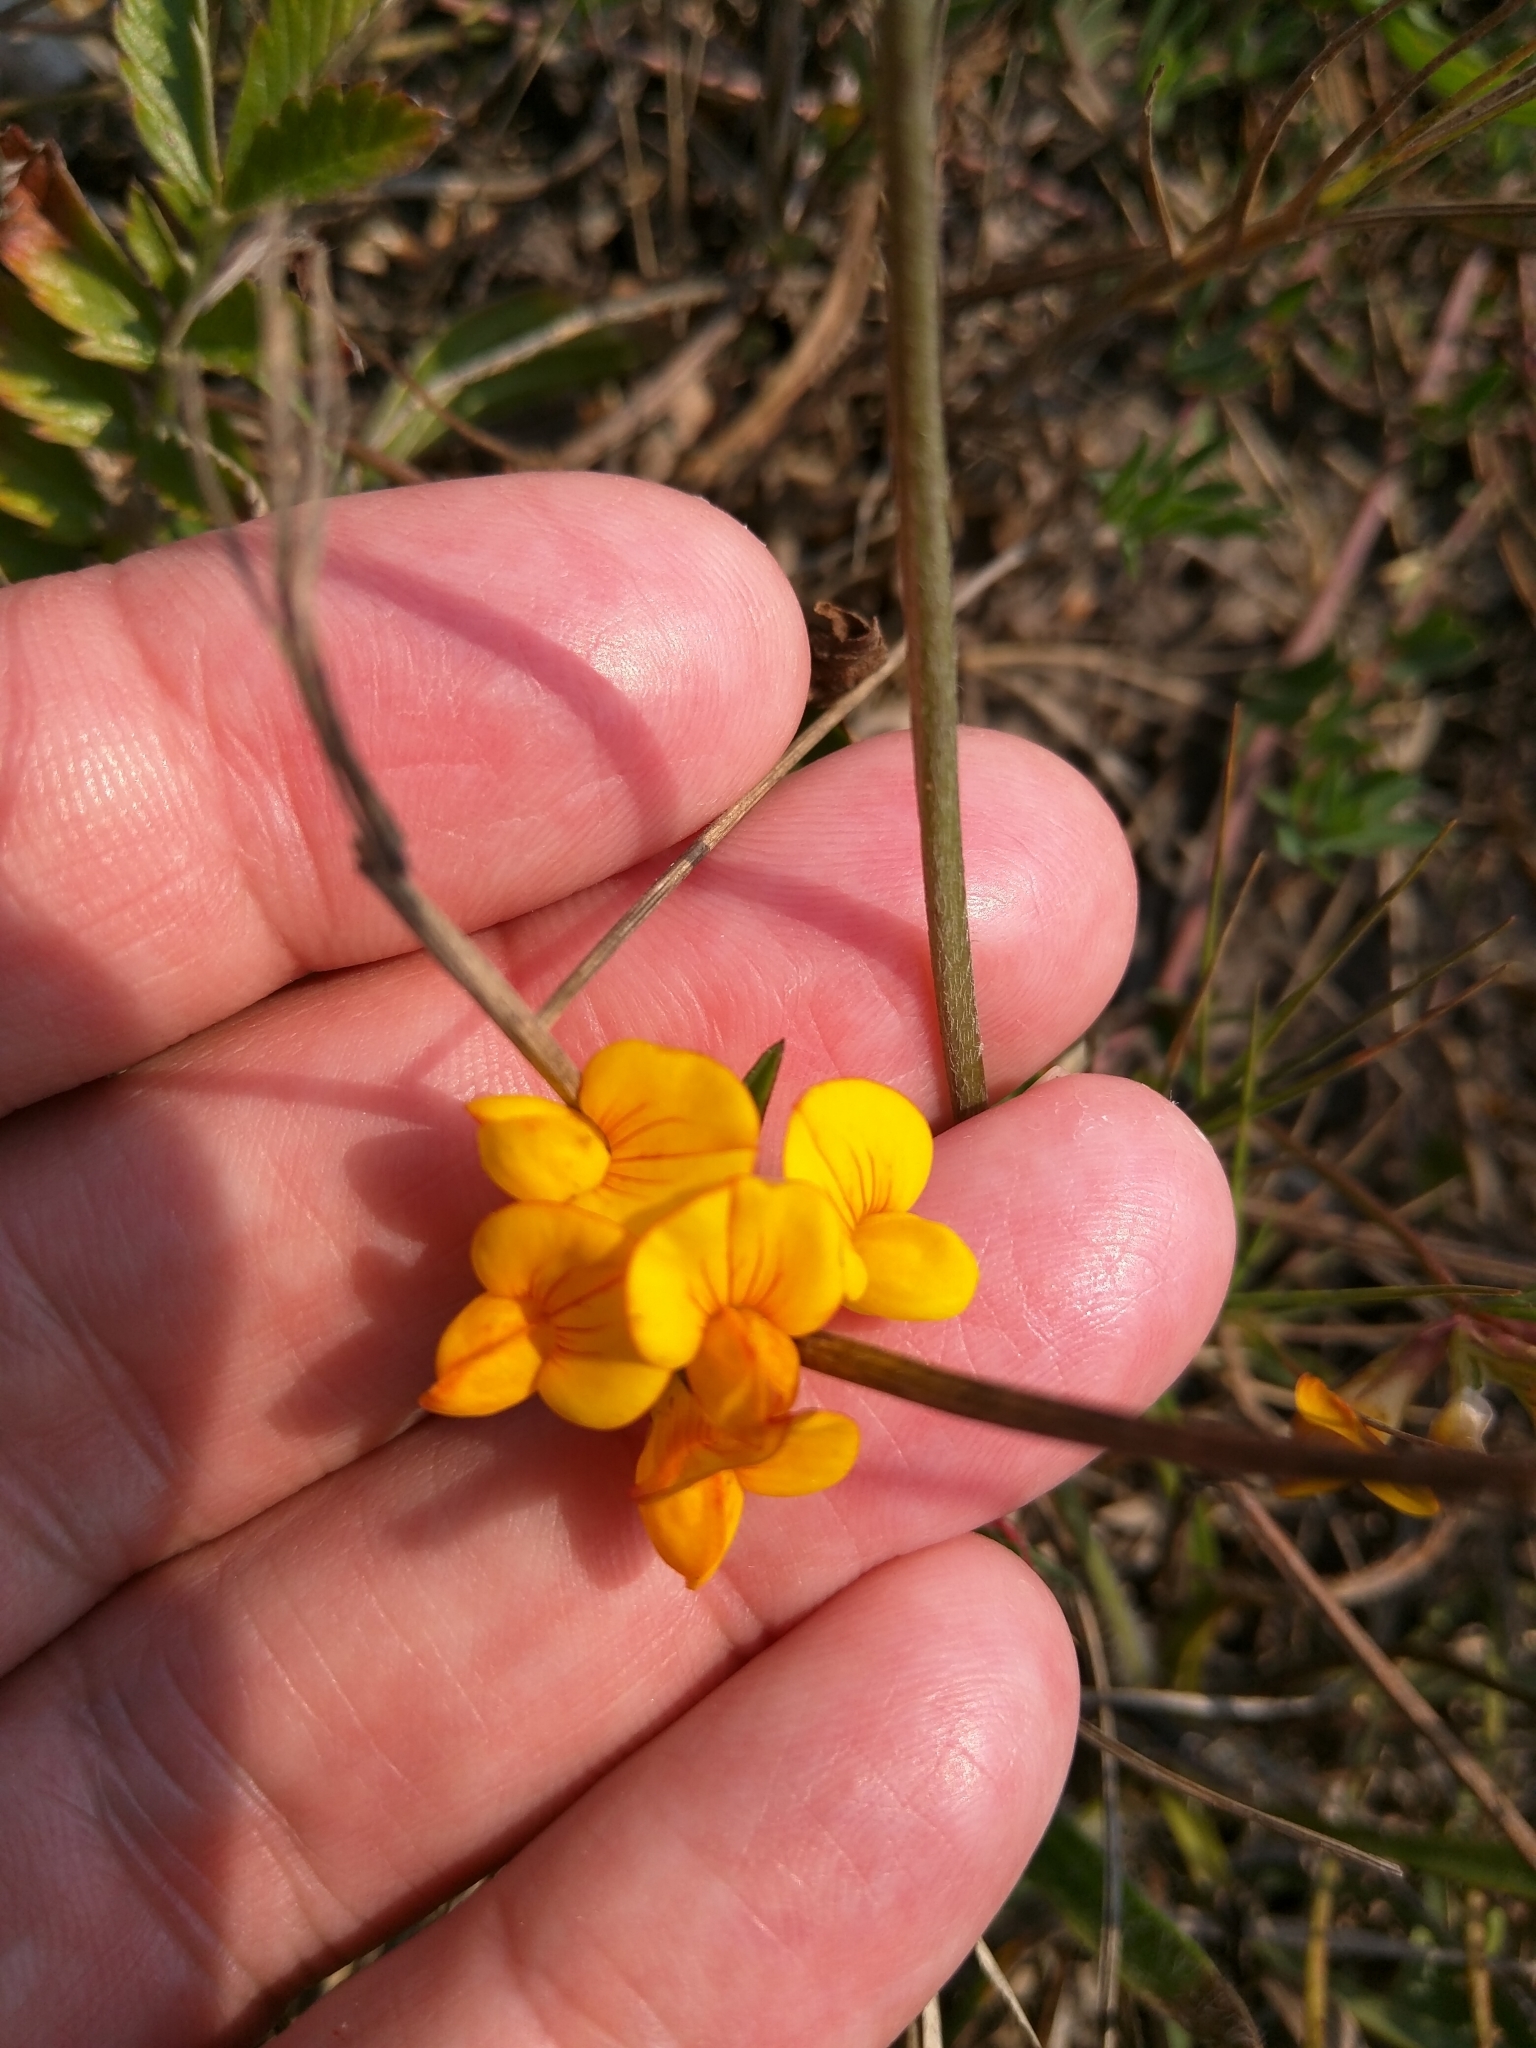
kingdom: Plantae
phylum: Tracheophyta
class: Magnoliopsida
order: Fabales
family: Fabaceae
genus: Lotus
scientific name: Lotus corniculatus
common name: Common bird's-foot-trefoil
